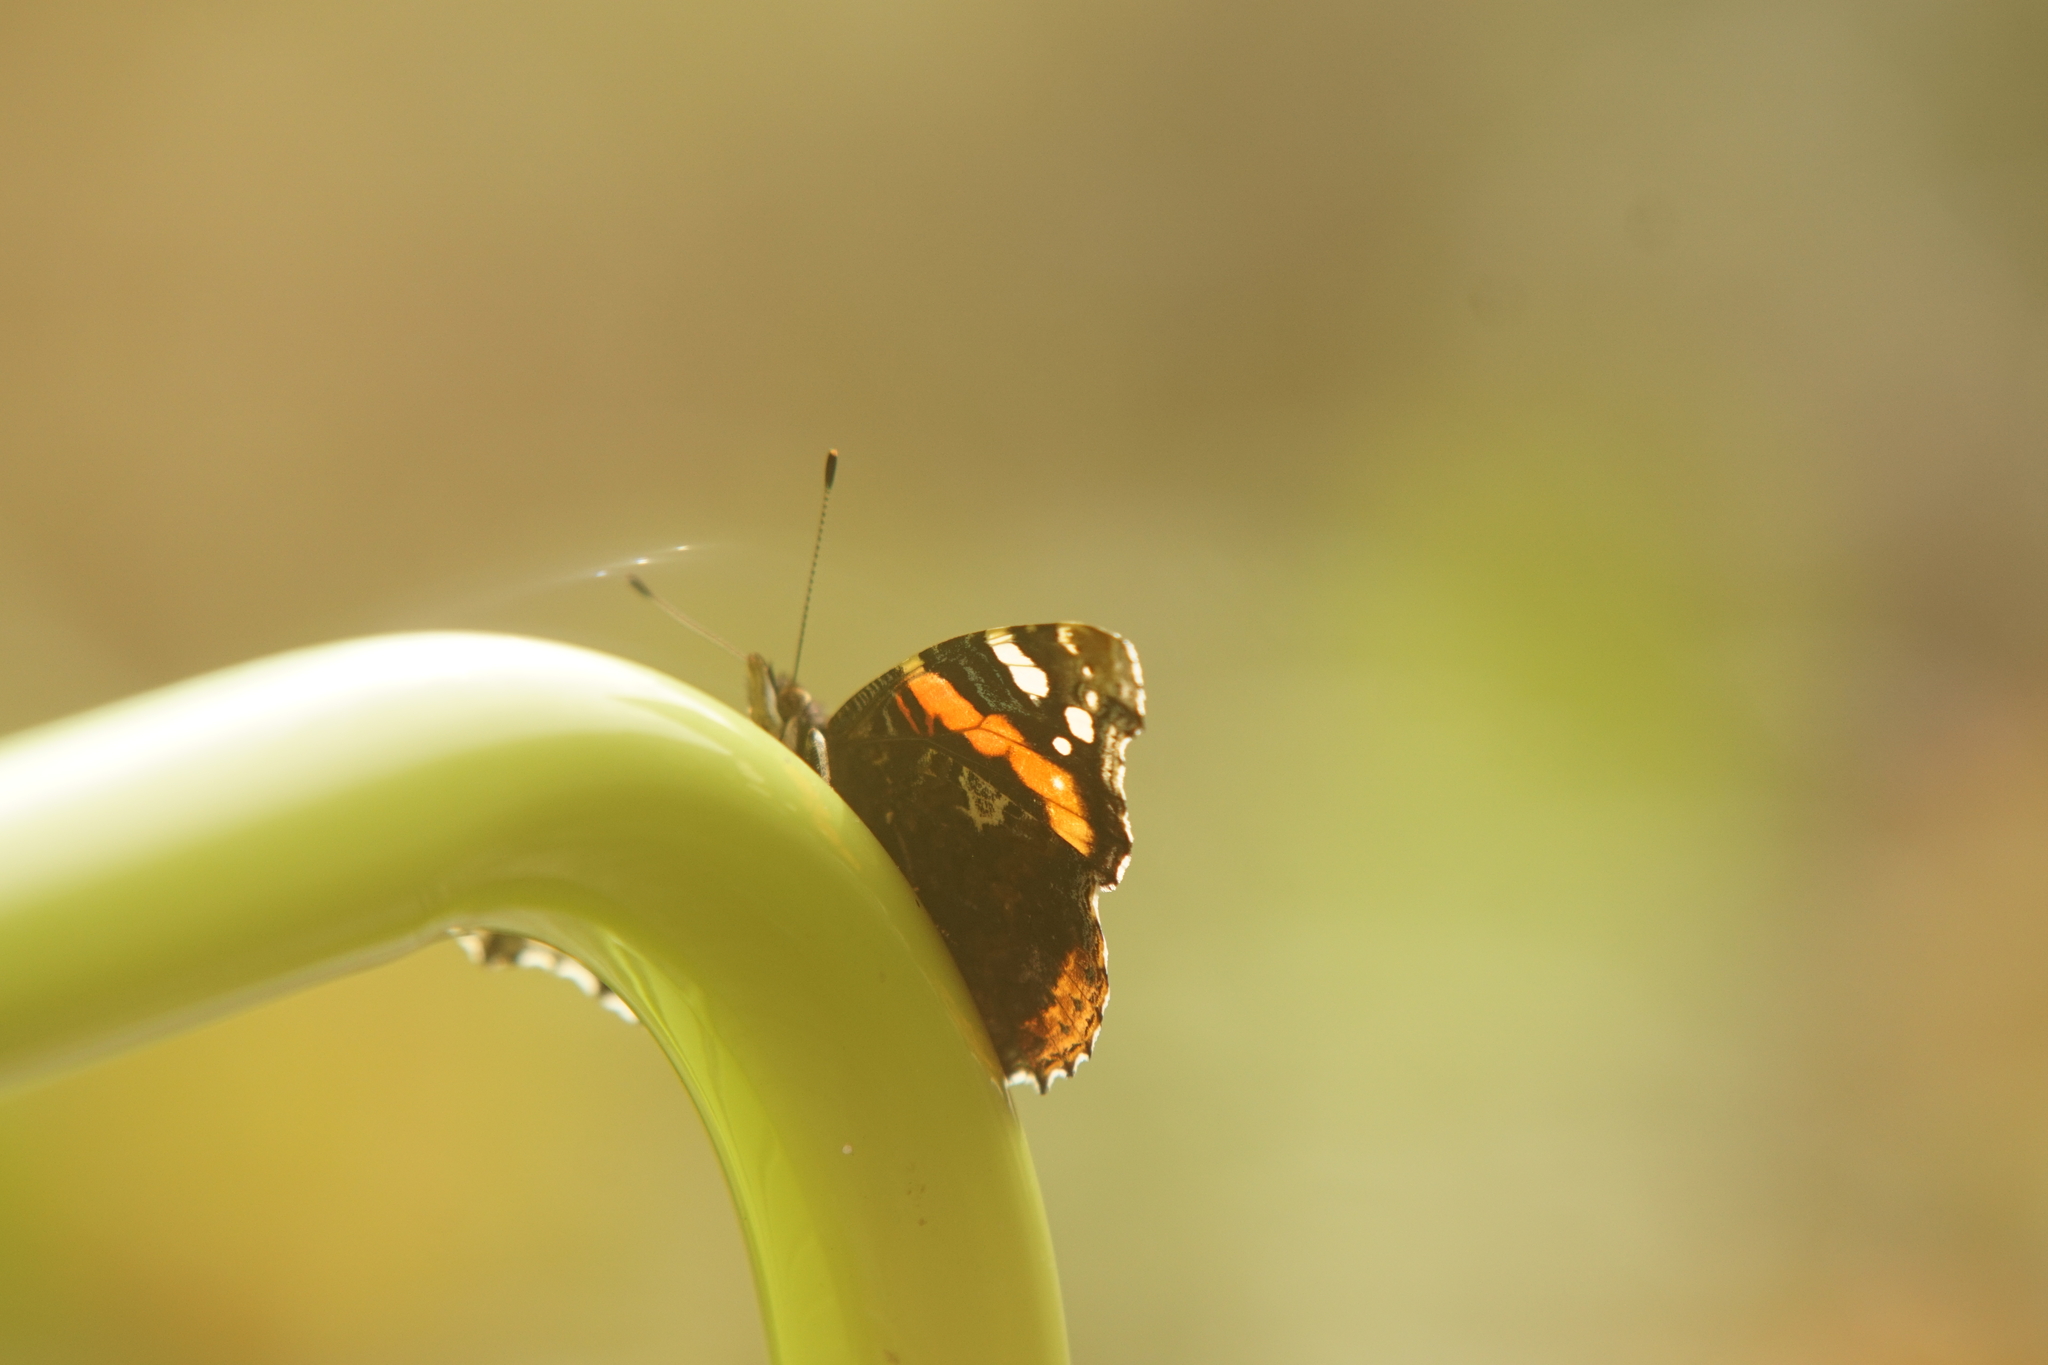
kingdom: Animalia
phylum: Arthropoda
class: Insecta
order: Lepidoptera
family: Nymphalidae
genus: Vanessa
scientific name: Vanessa atalanta
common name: Red admiral
